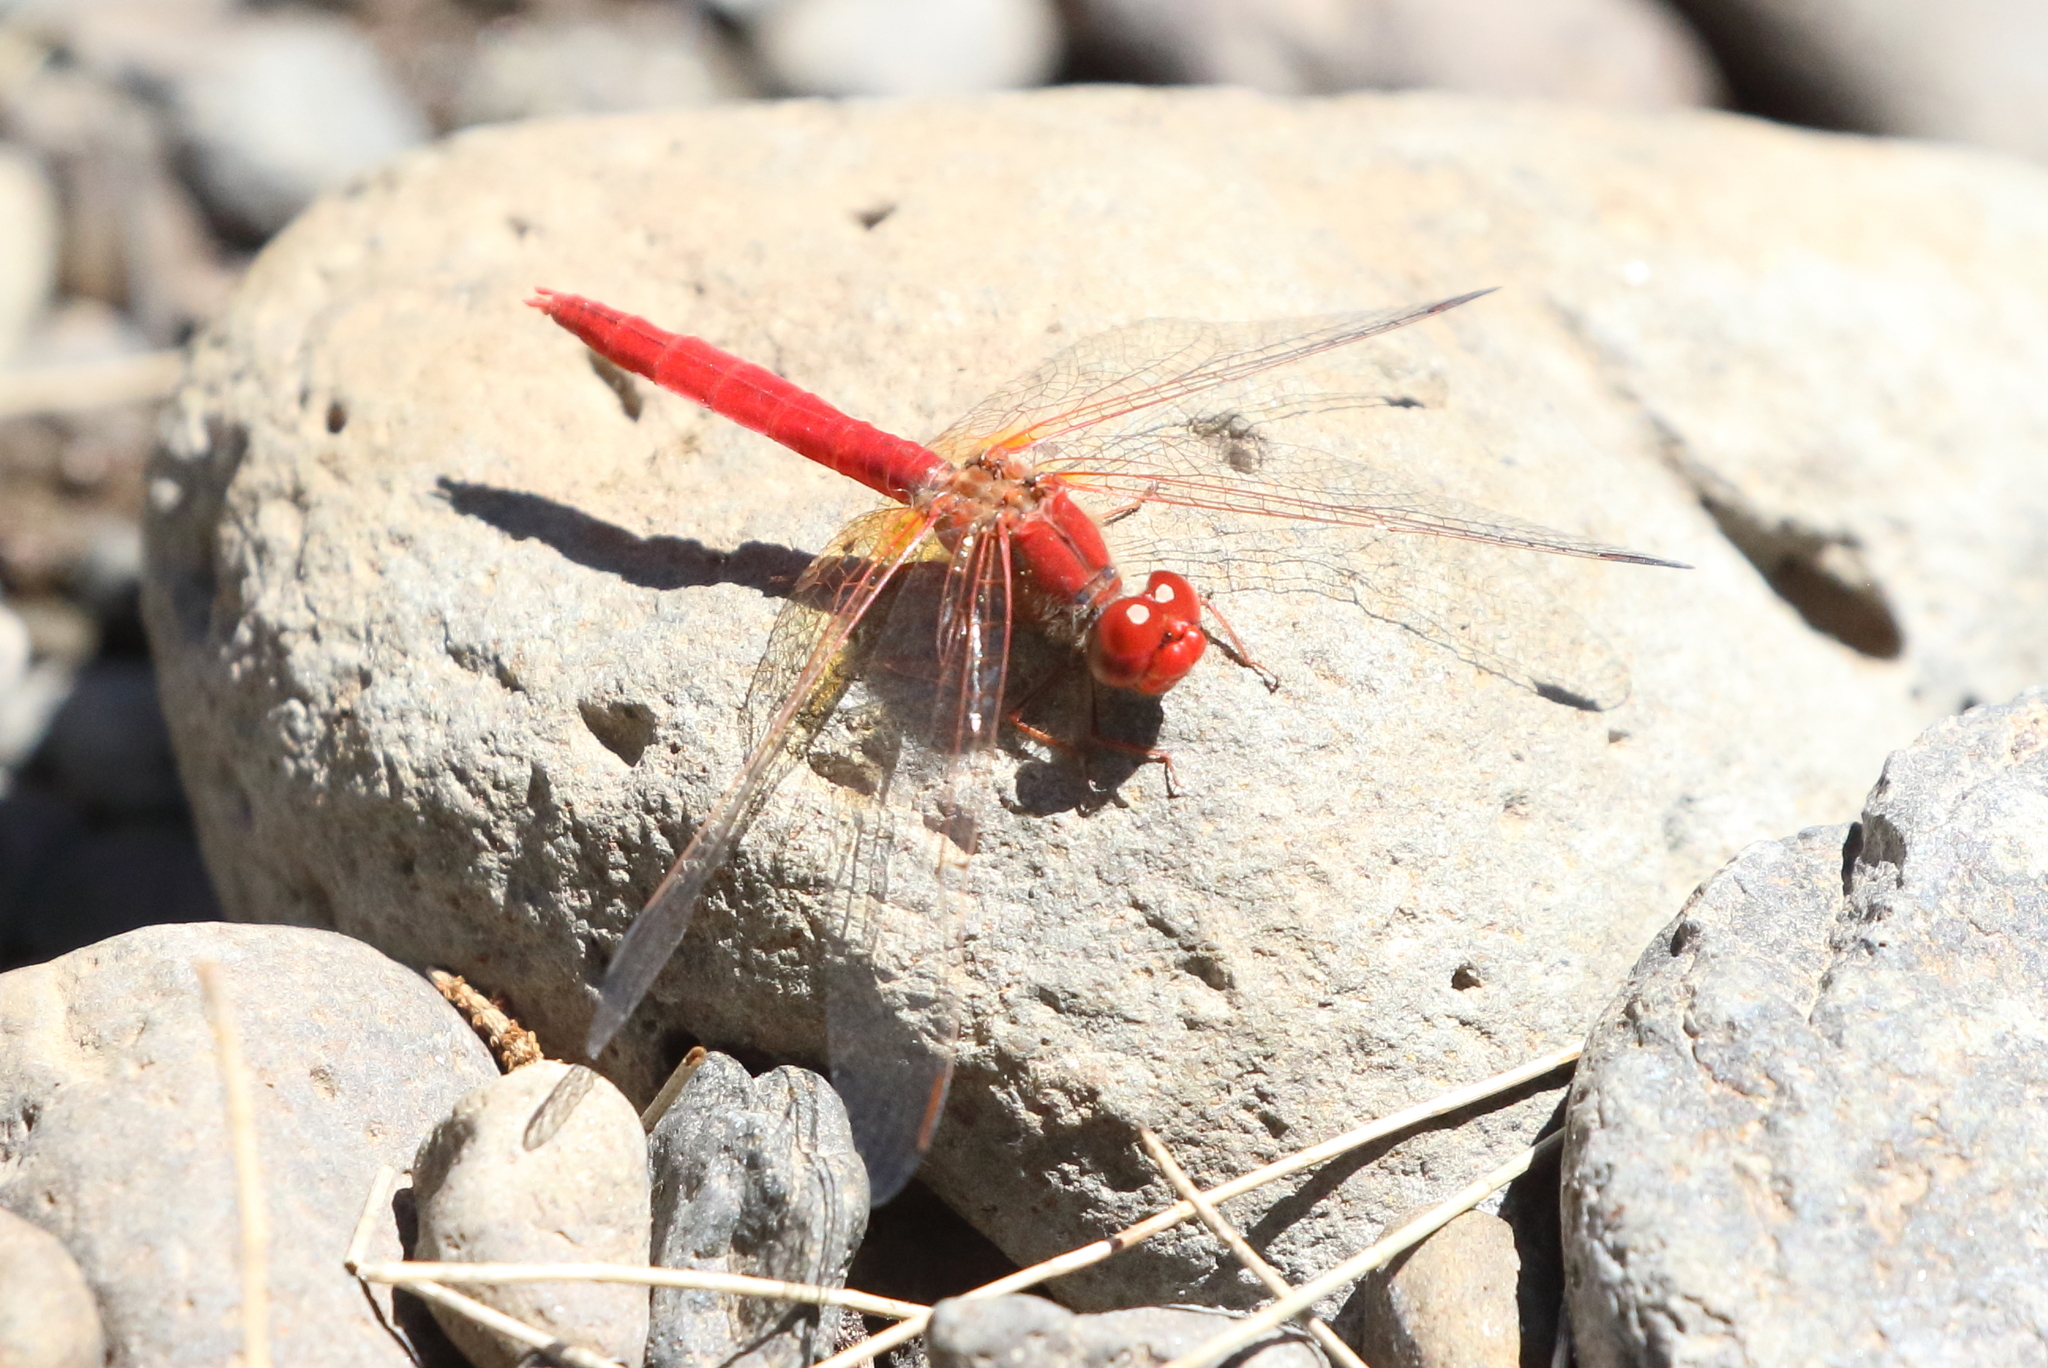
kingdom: Animalia
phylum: Arthropoda
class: Insecta
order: Odonata
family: Libellulidae
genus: Diplacodes
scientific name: Diplacodes haematodes
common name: Scarlet percher
